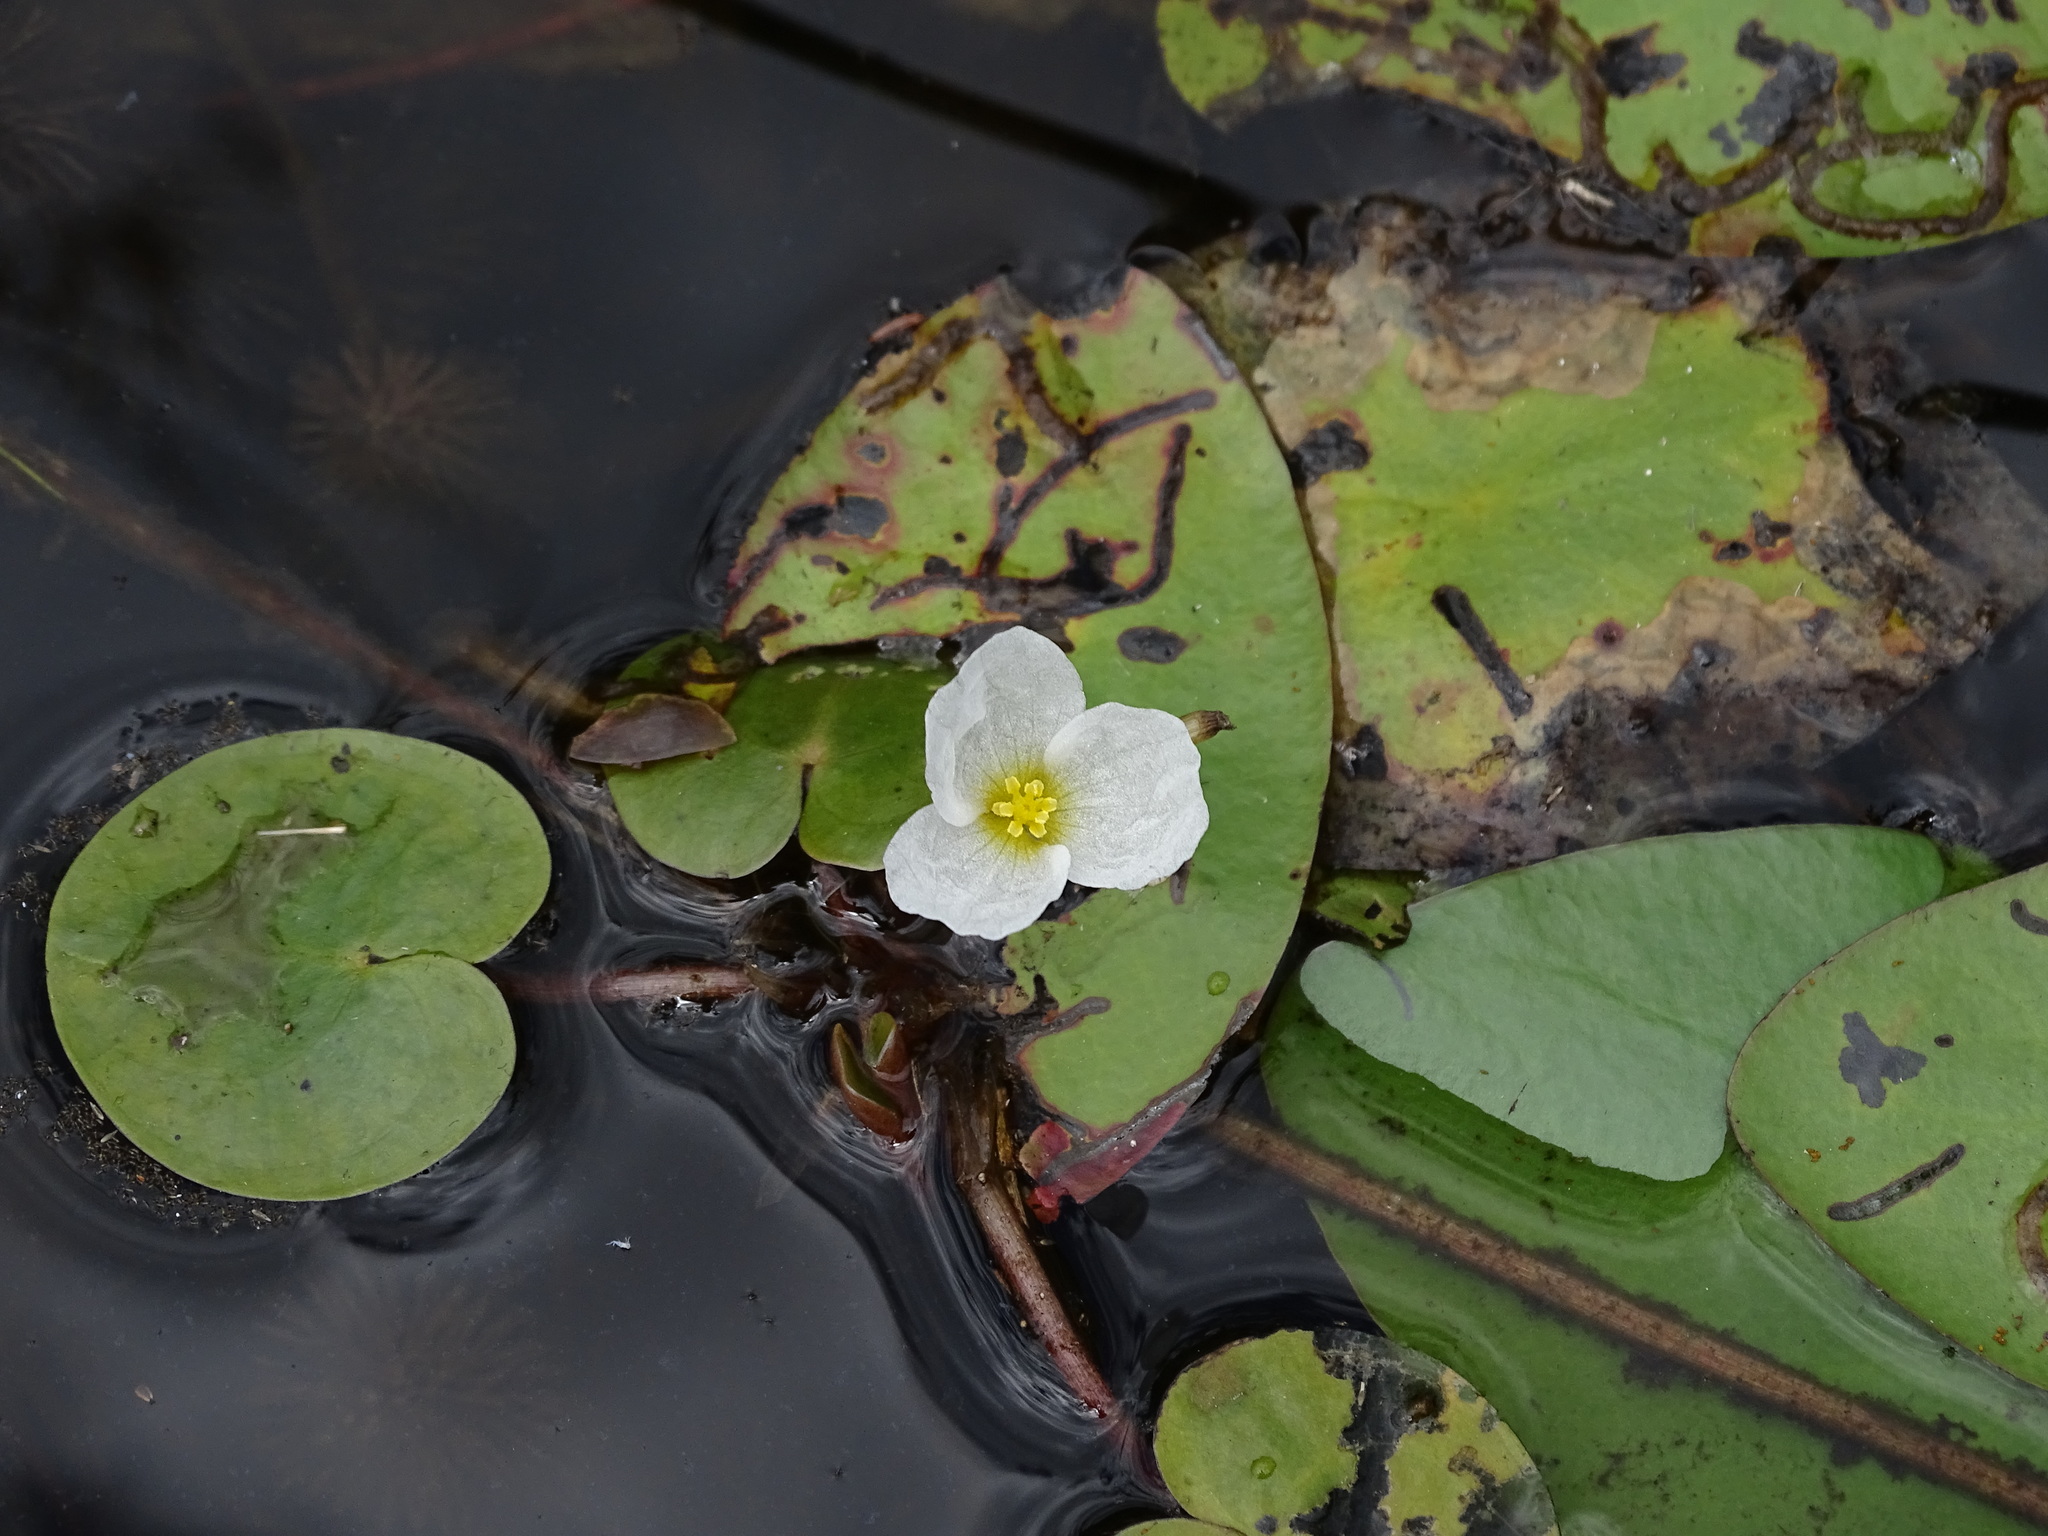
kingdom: Plantae
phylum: Tracheophyta
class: Liliopsida
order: Alismatales
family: Hydrocharitaceae
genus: Hydrocharis
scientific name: Hydrocharis morsus-ranae
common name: Frogbit
